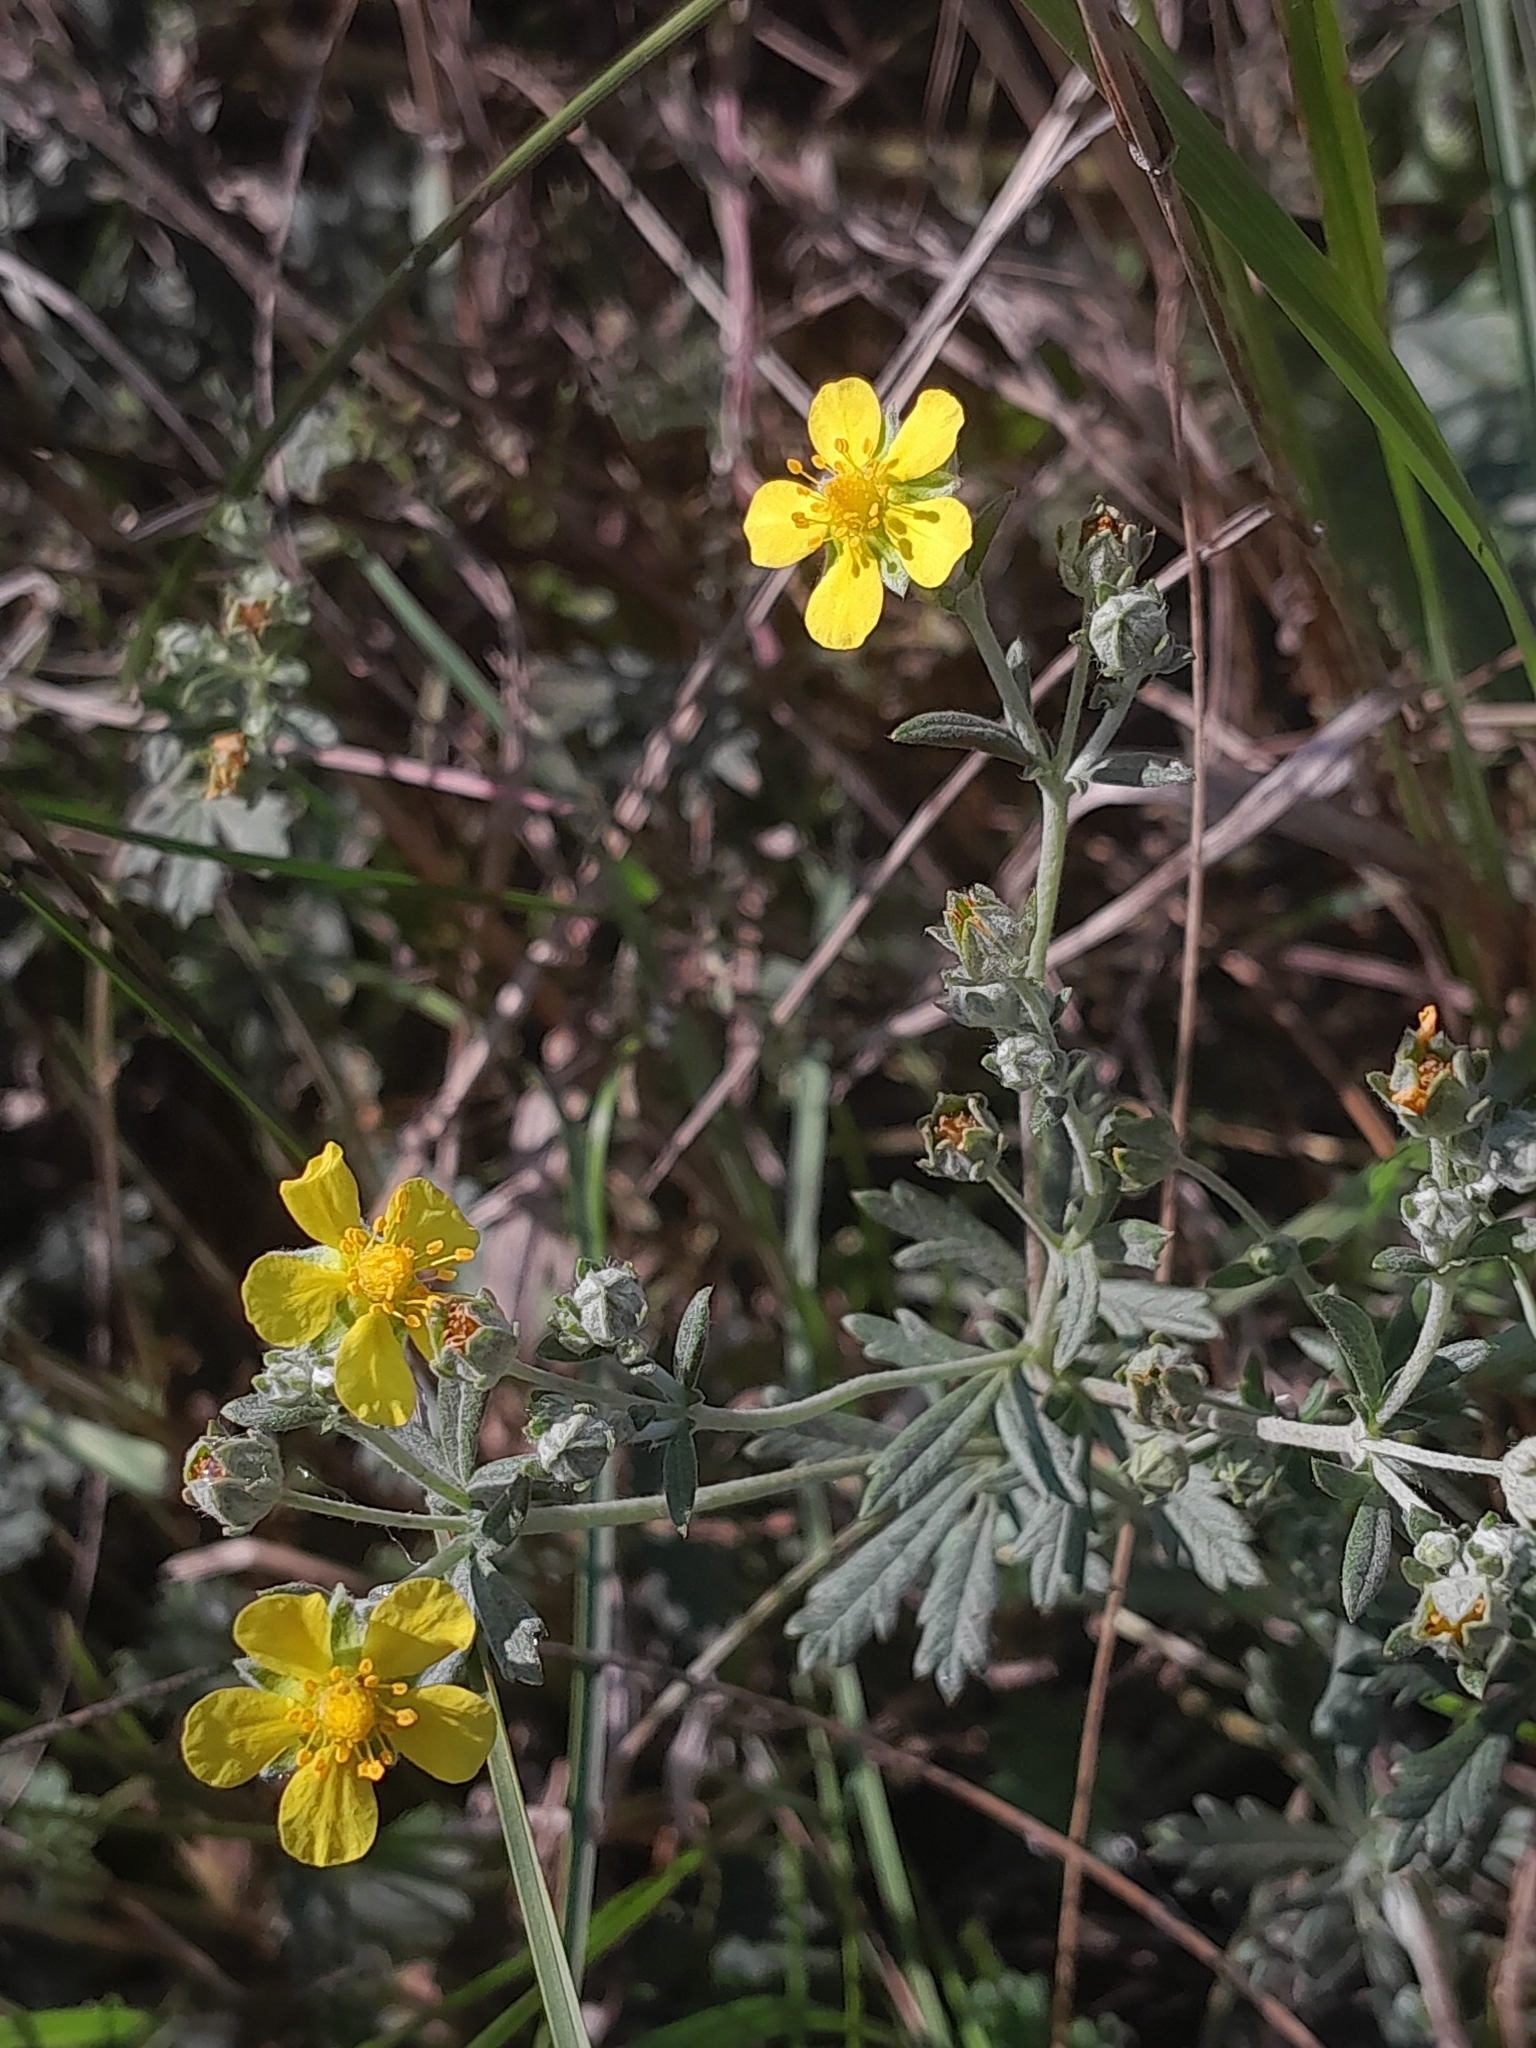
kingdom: Plantae
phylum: Tracheophyta
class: Magnoliopsida
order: Rosales
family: Rosaceae
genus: Potentilla
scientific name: Potentilla argentea
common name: Hoary cinquefoil
